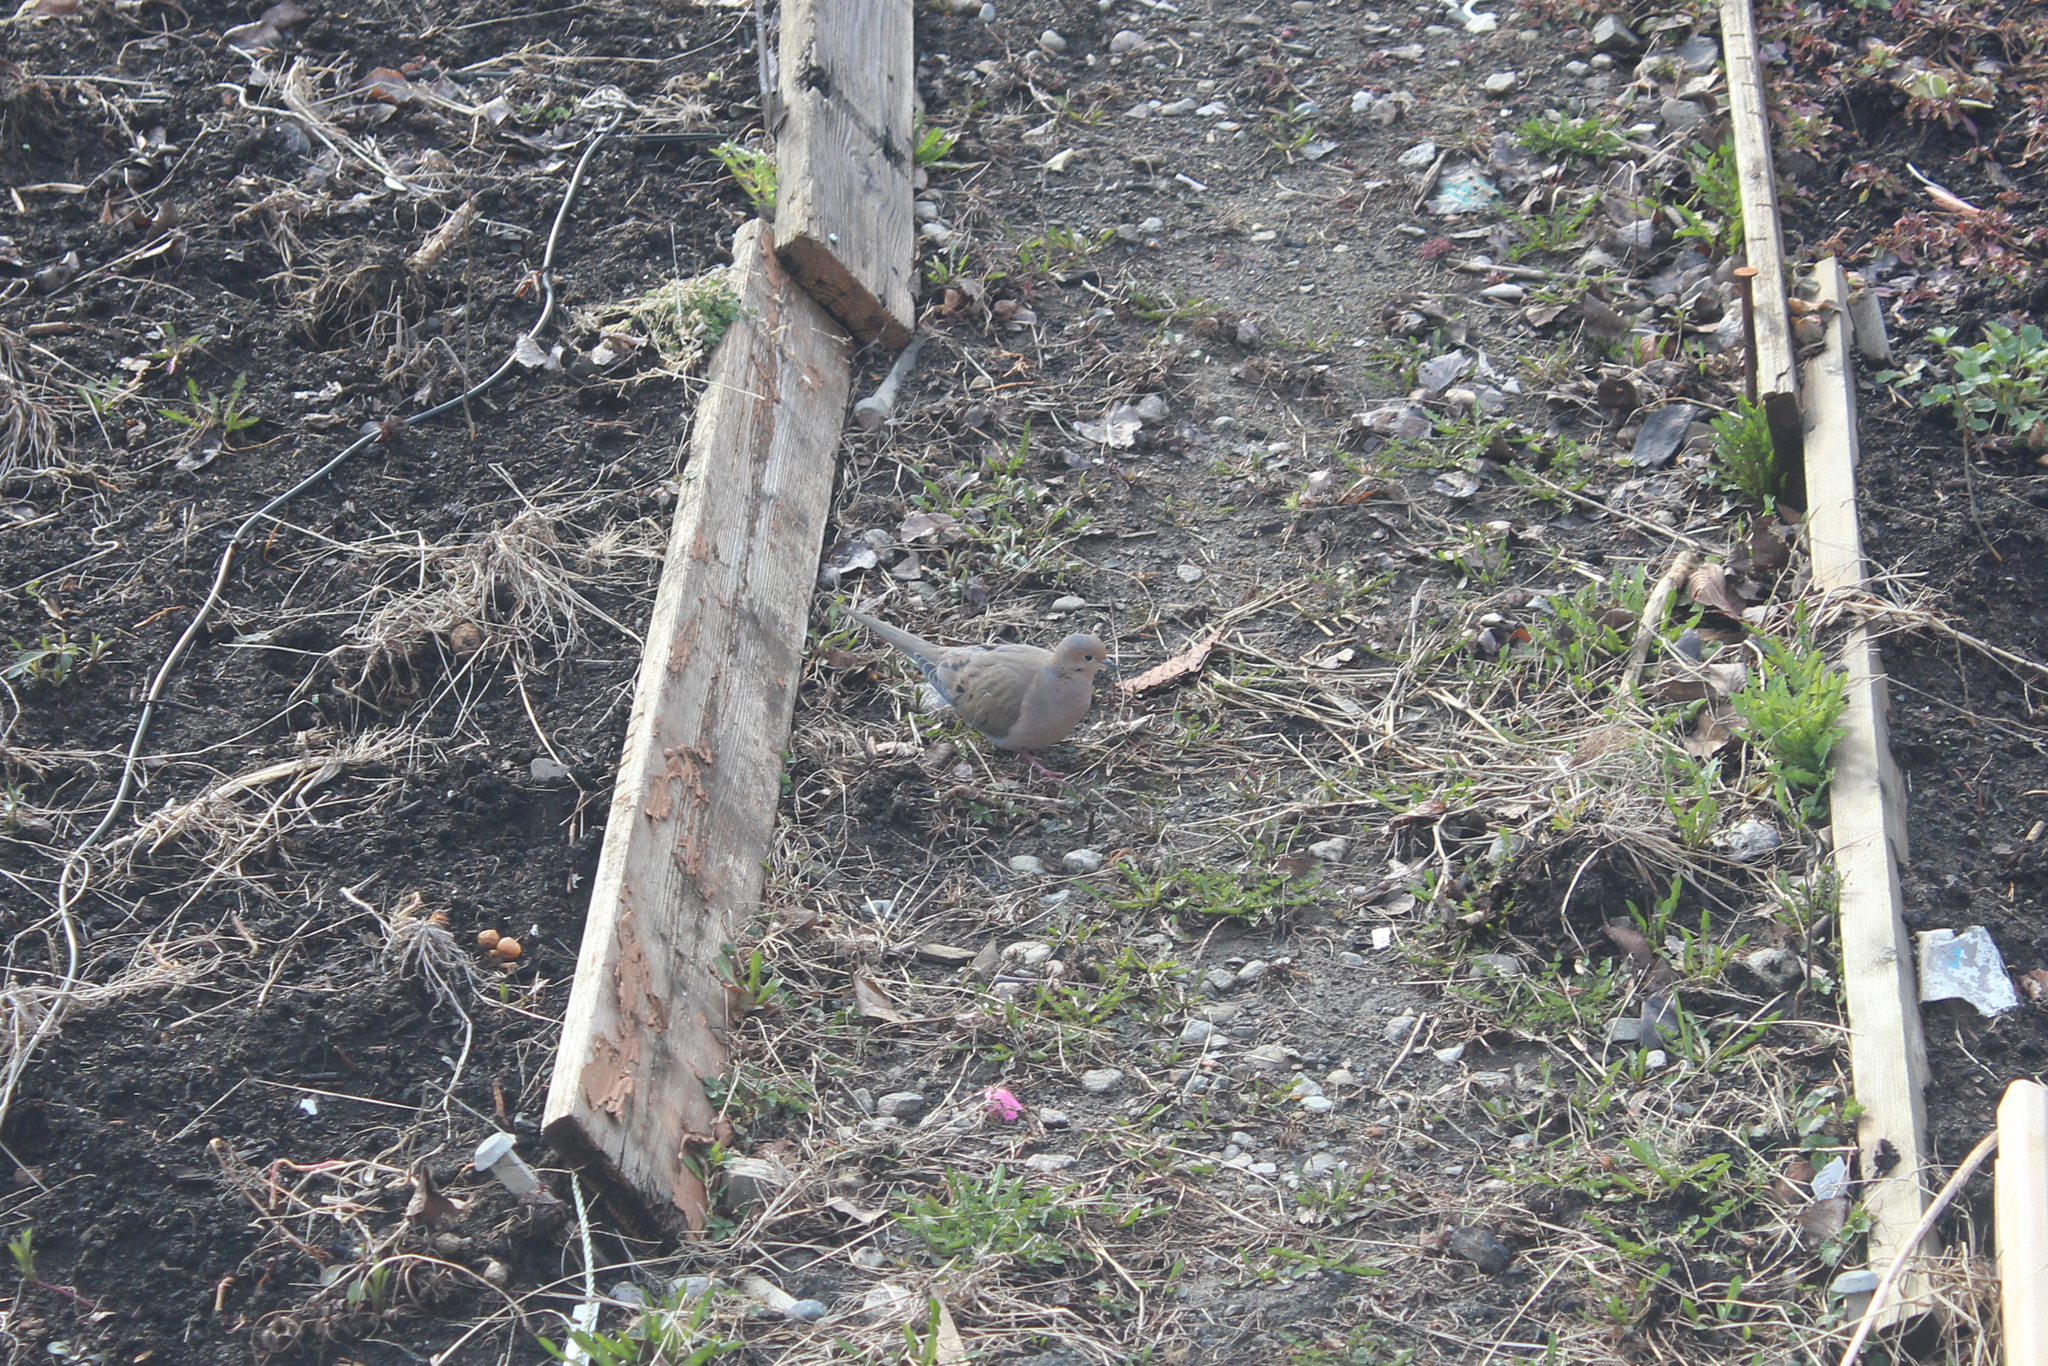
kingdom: Animalia
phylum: Chordata
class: Aves
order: Columbiformes
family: Columbidae
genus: Zenaida
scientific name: Zenaida macroura
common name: Mourning dove
